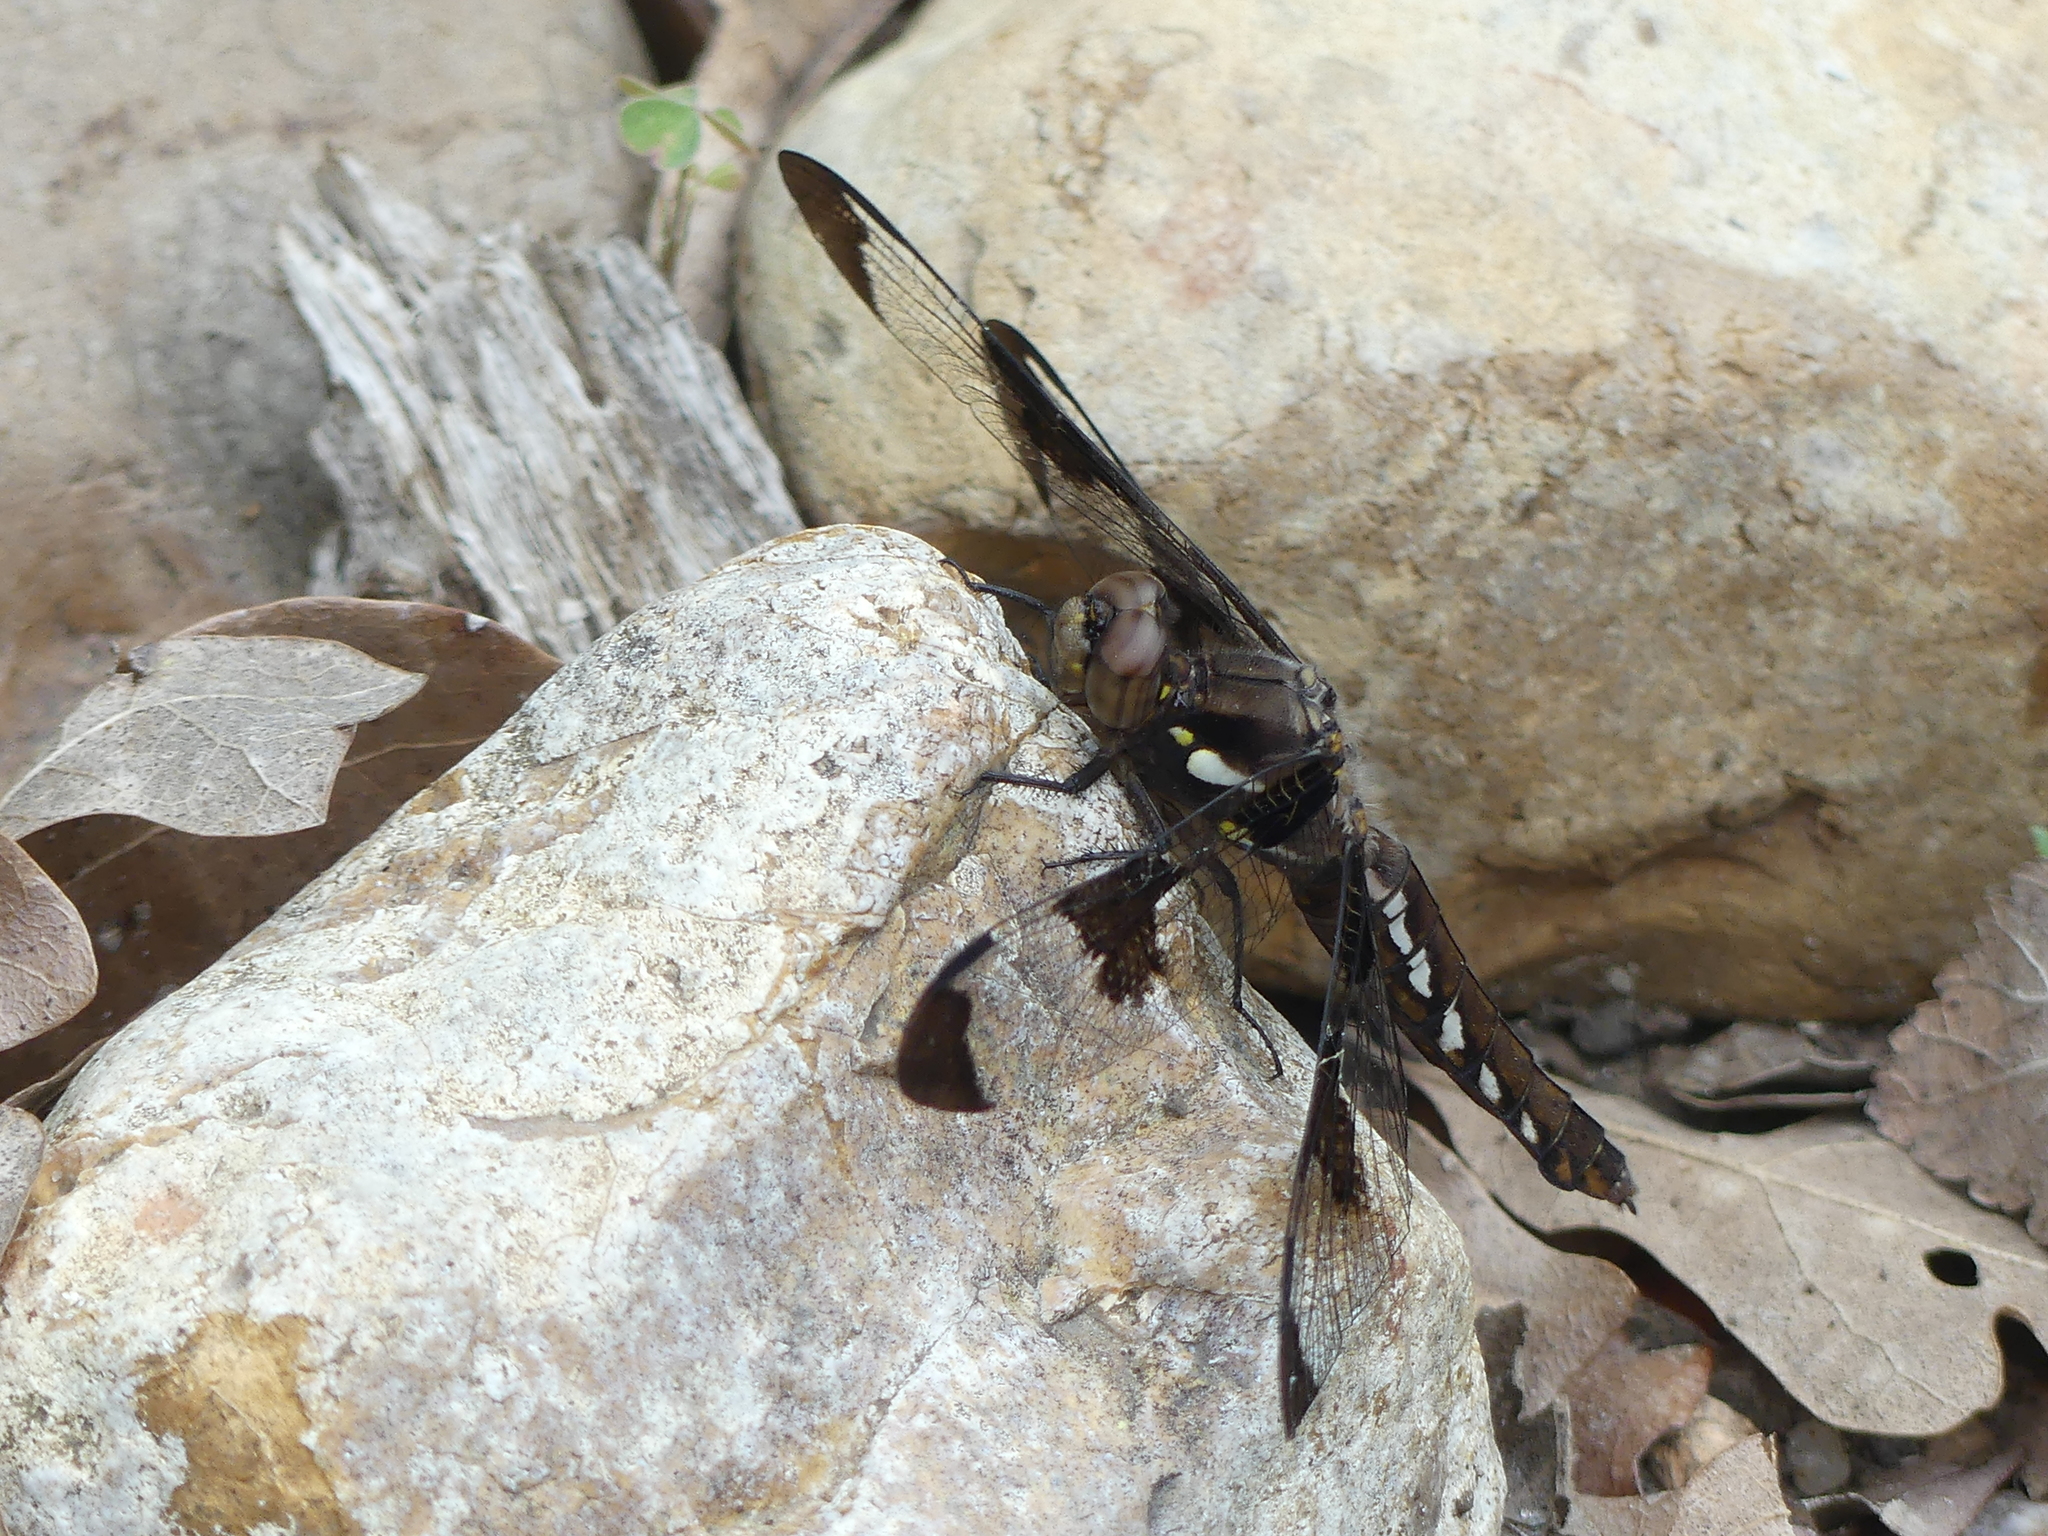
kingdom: Animalia
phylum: Arthropoda
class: Insecta
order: Odonata
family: Libellulidae
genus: Plathemis
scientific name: Plathemis lydia
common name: Common whitetail
